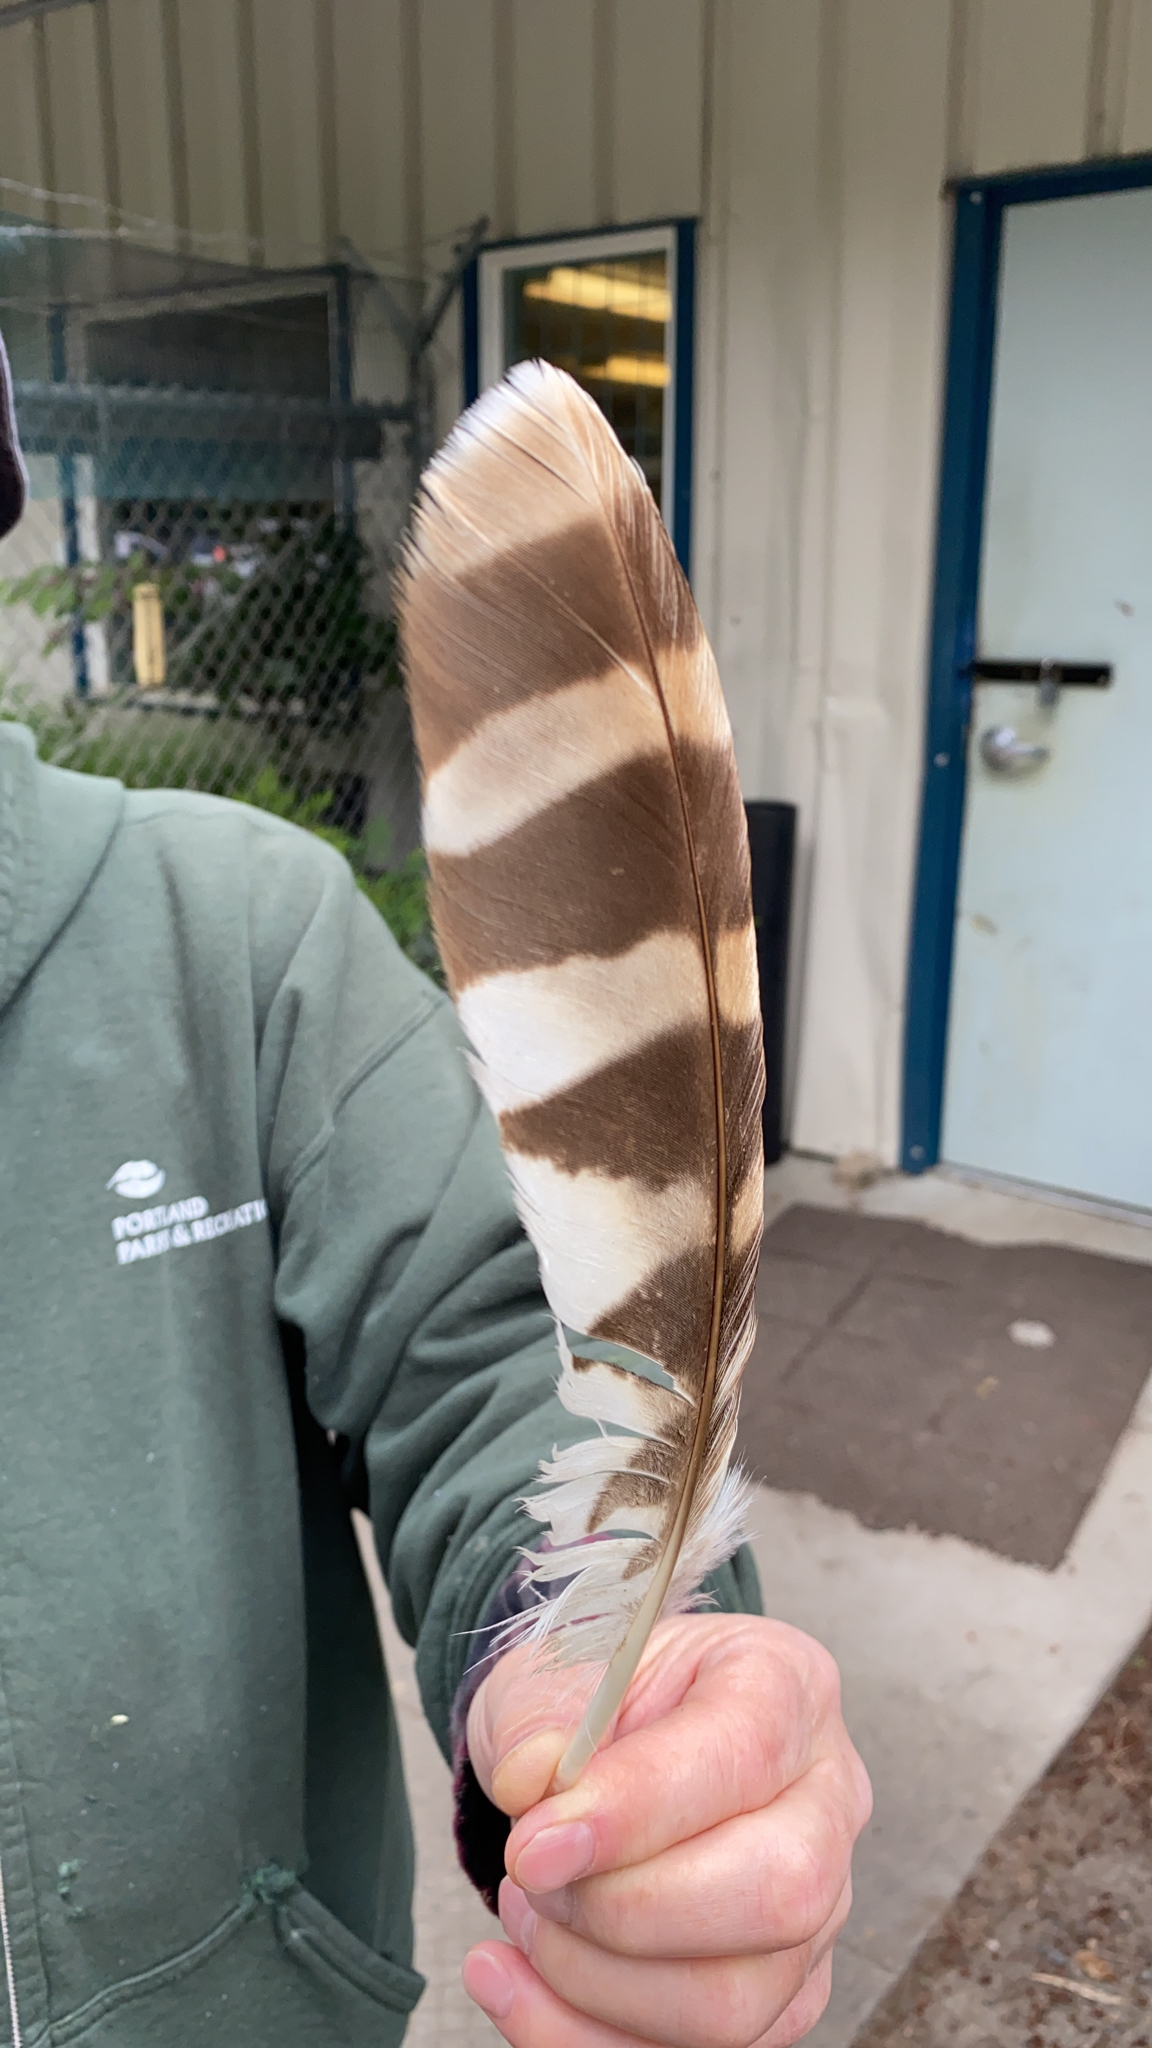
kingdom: Animalia
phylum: Chordata
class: Aves
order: Strigiformes
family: Strigidae
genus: Strix
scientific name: Strix varia
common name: Barred owl
